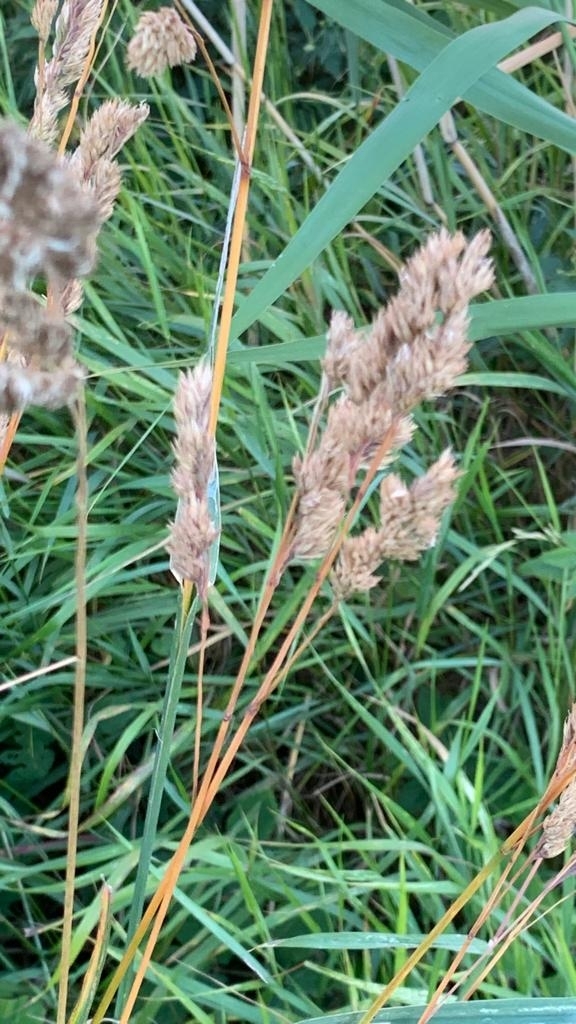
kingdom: Plantae
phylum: Tracheophyta
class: Liliopsida
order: Poales
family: Poaceae
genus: Dactylis
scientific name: Dactylis glomerata
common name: Orchardgrass
